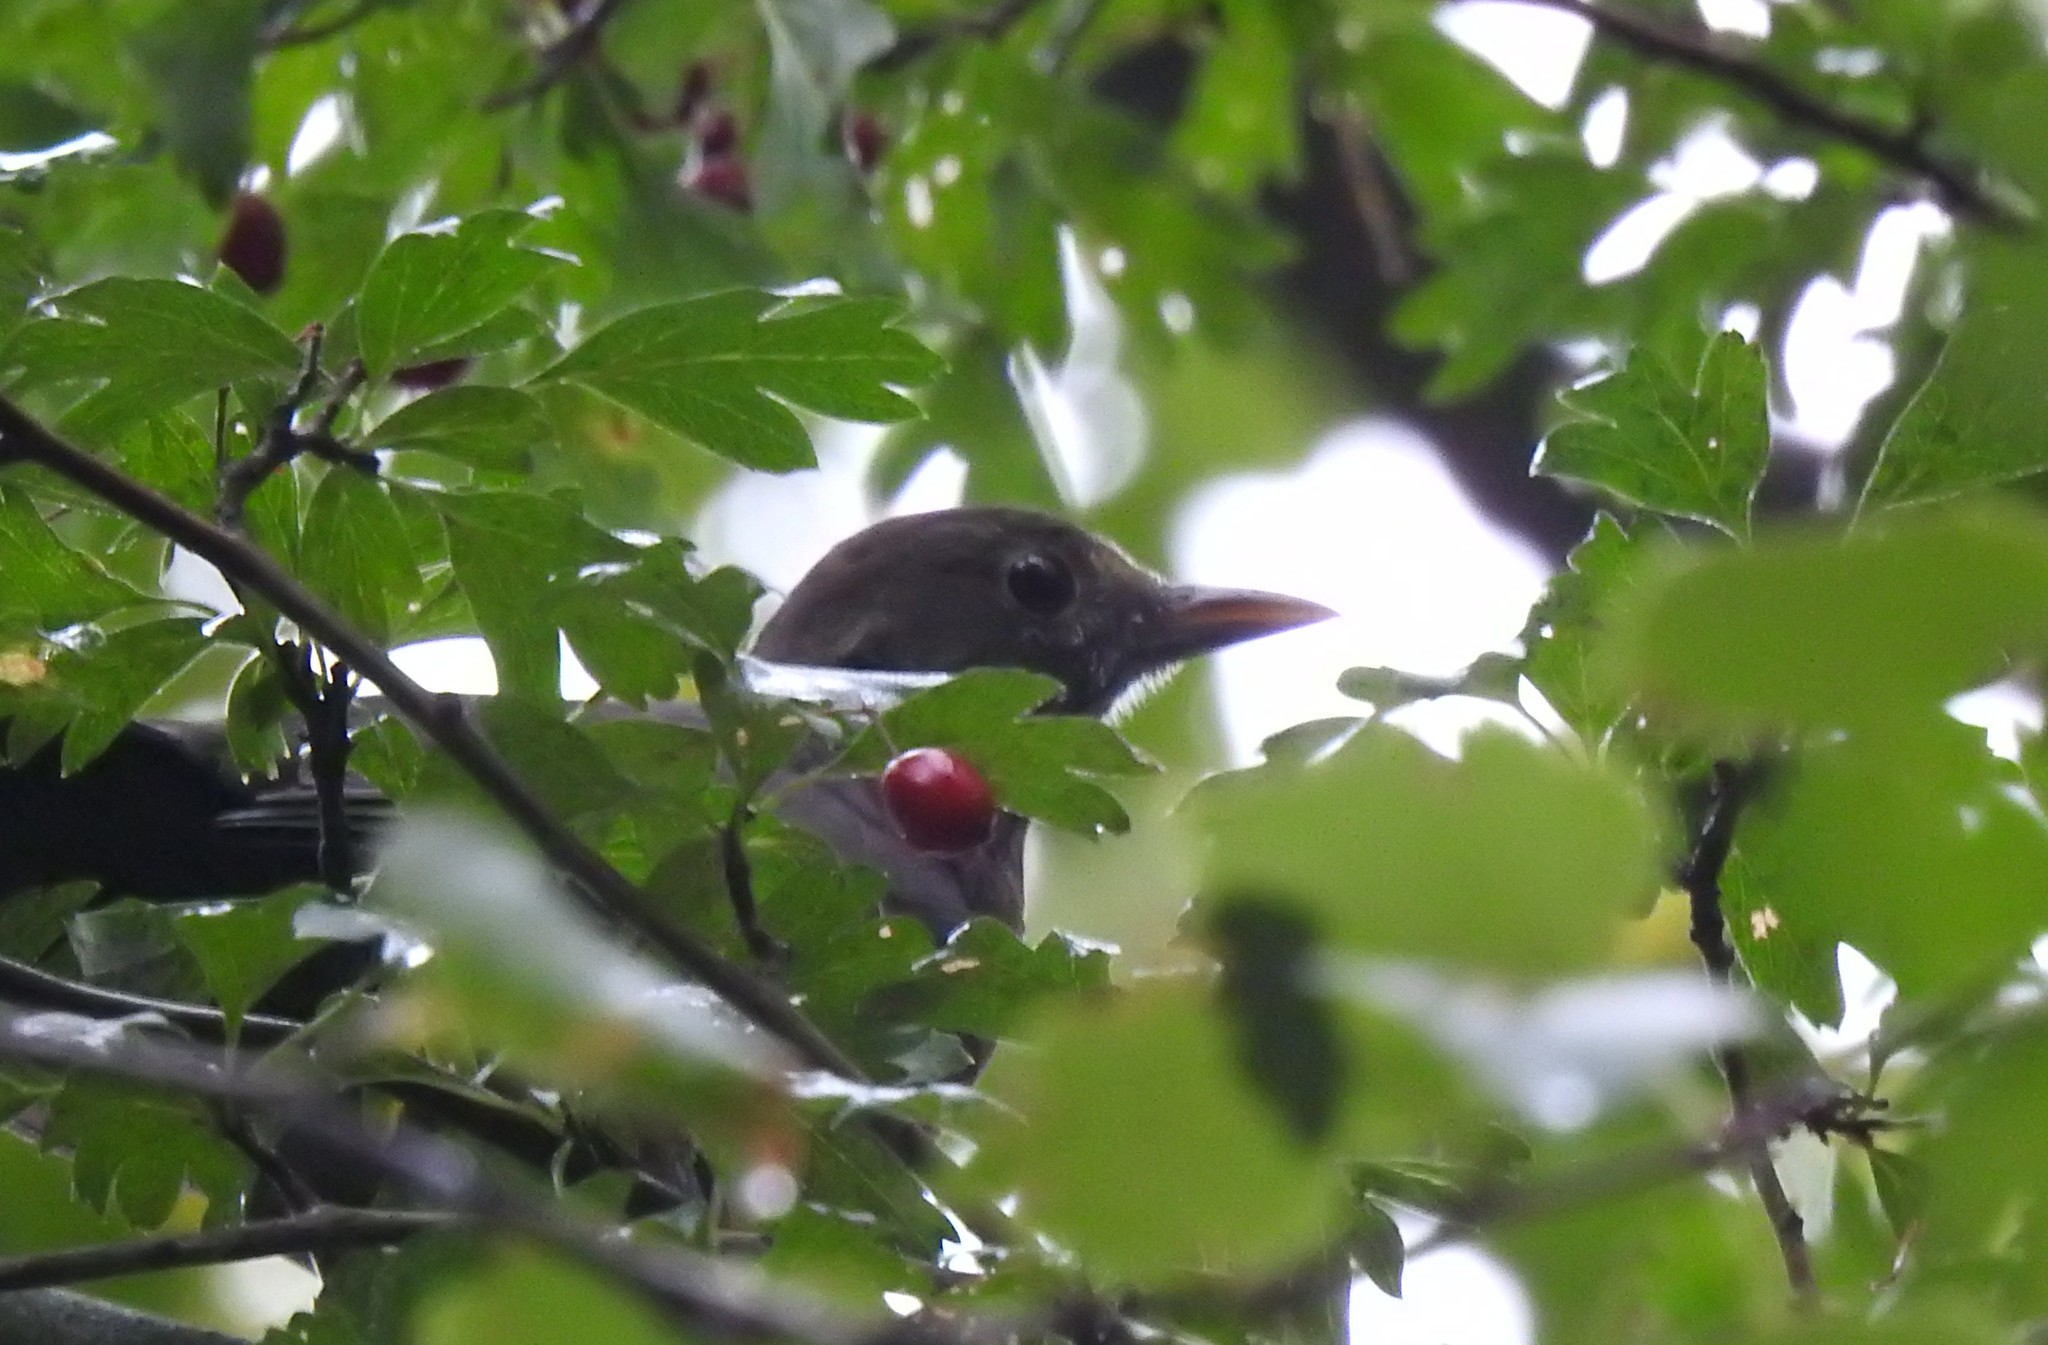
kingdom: Animalia
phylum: Chordata
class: Aves
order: Passeriformes
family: Turdidae
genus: Turdus
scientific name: Turdus merula
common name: Common blackbird
